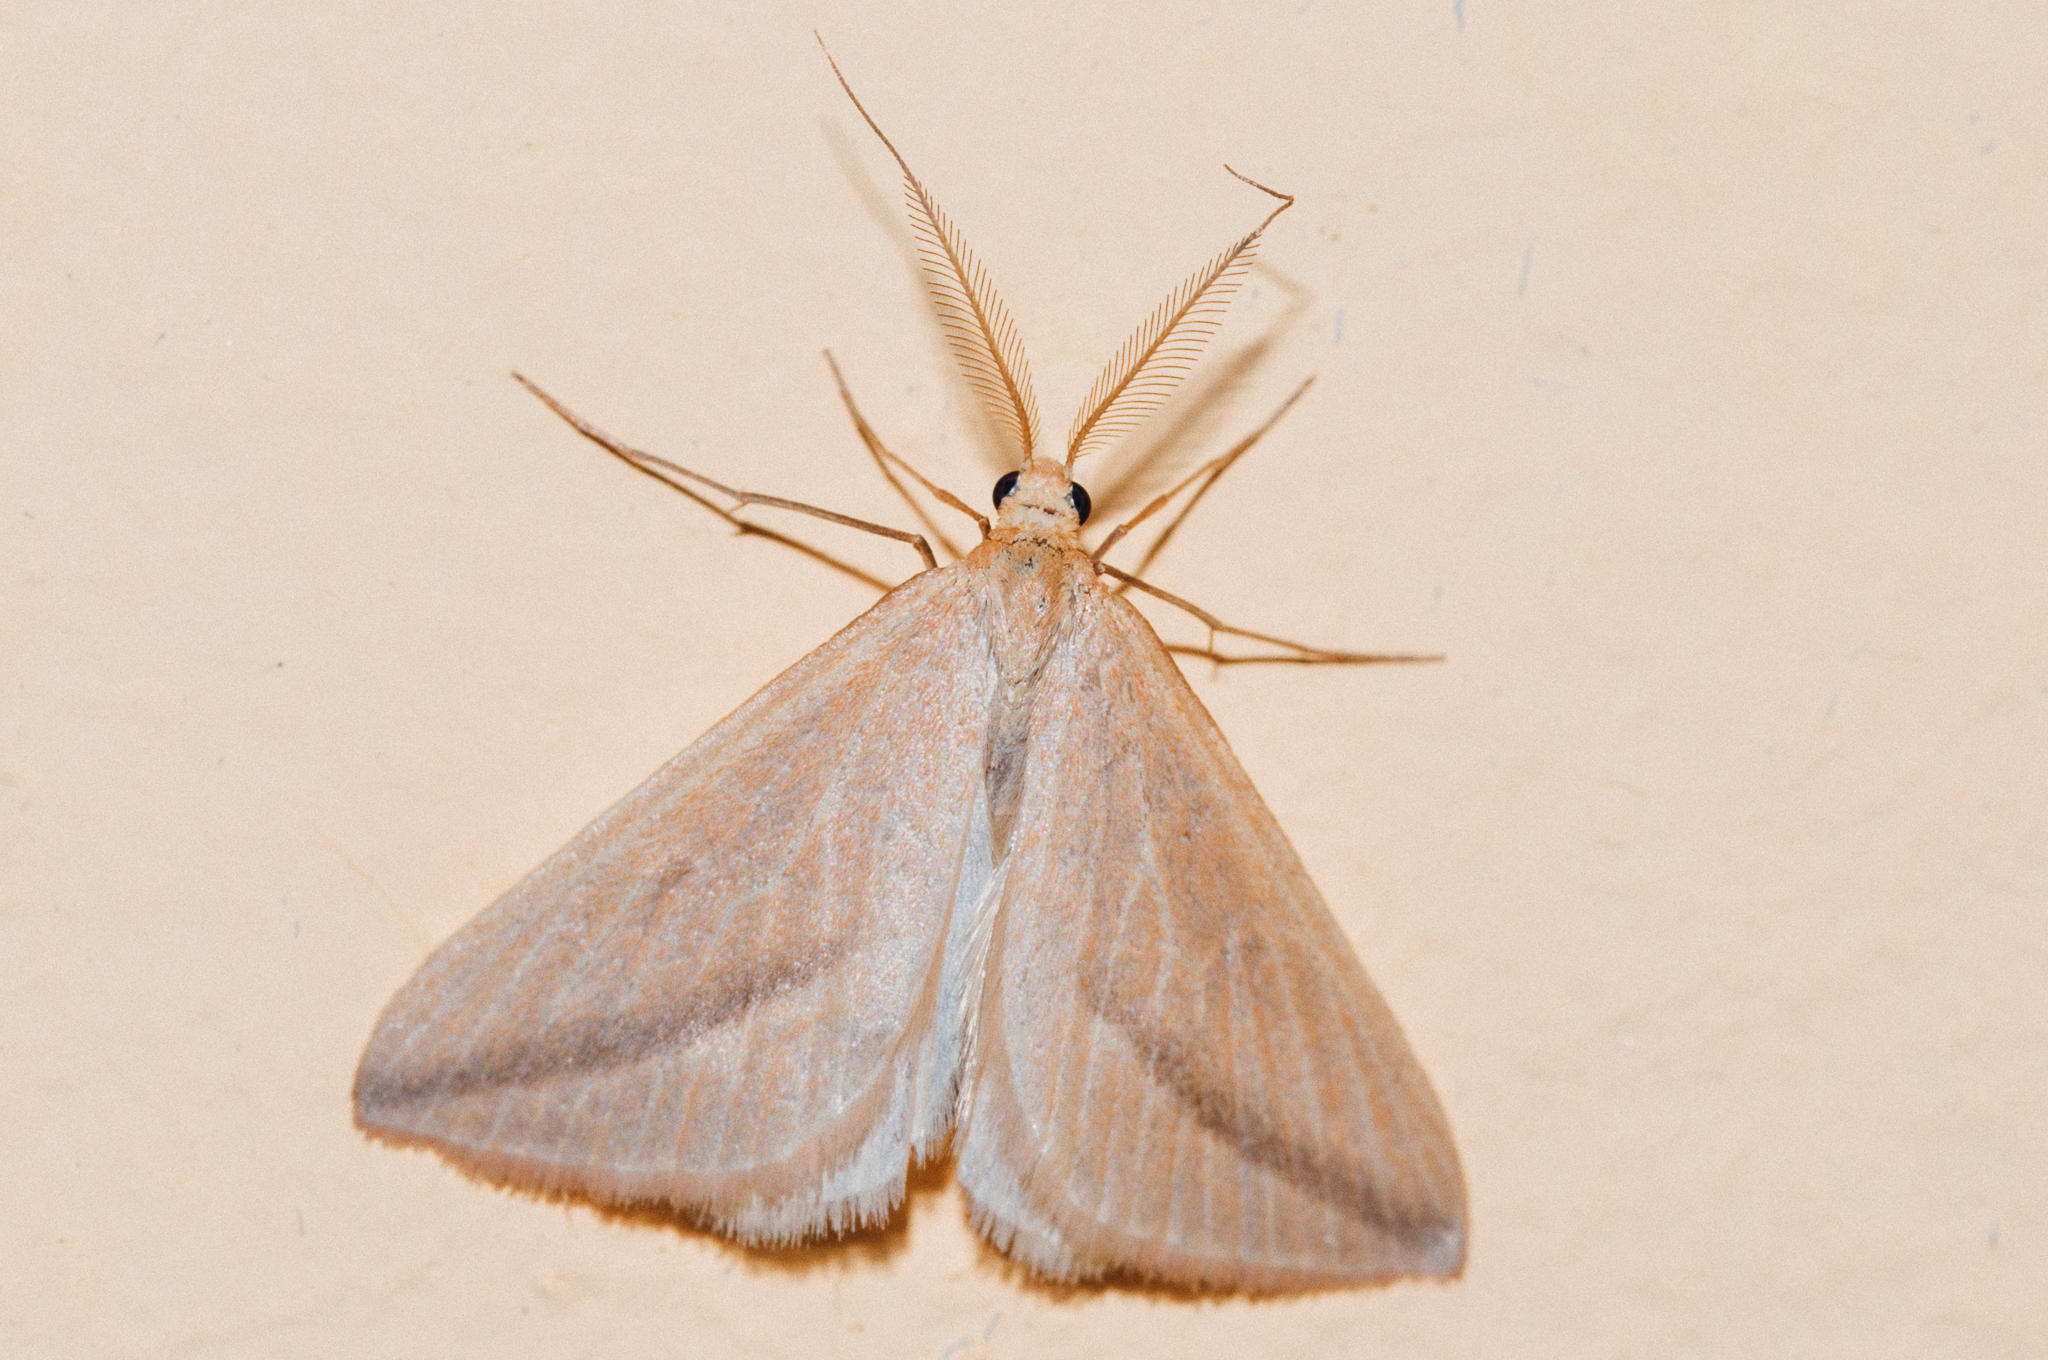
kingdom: Animalia
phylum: Arthropoda
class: Insecta
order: Lepidoptera
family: Geometridae
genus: Rhodometra
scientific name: Rhodometra sacraria
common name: Vestal
